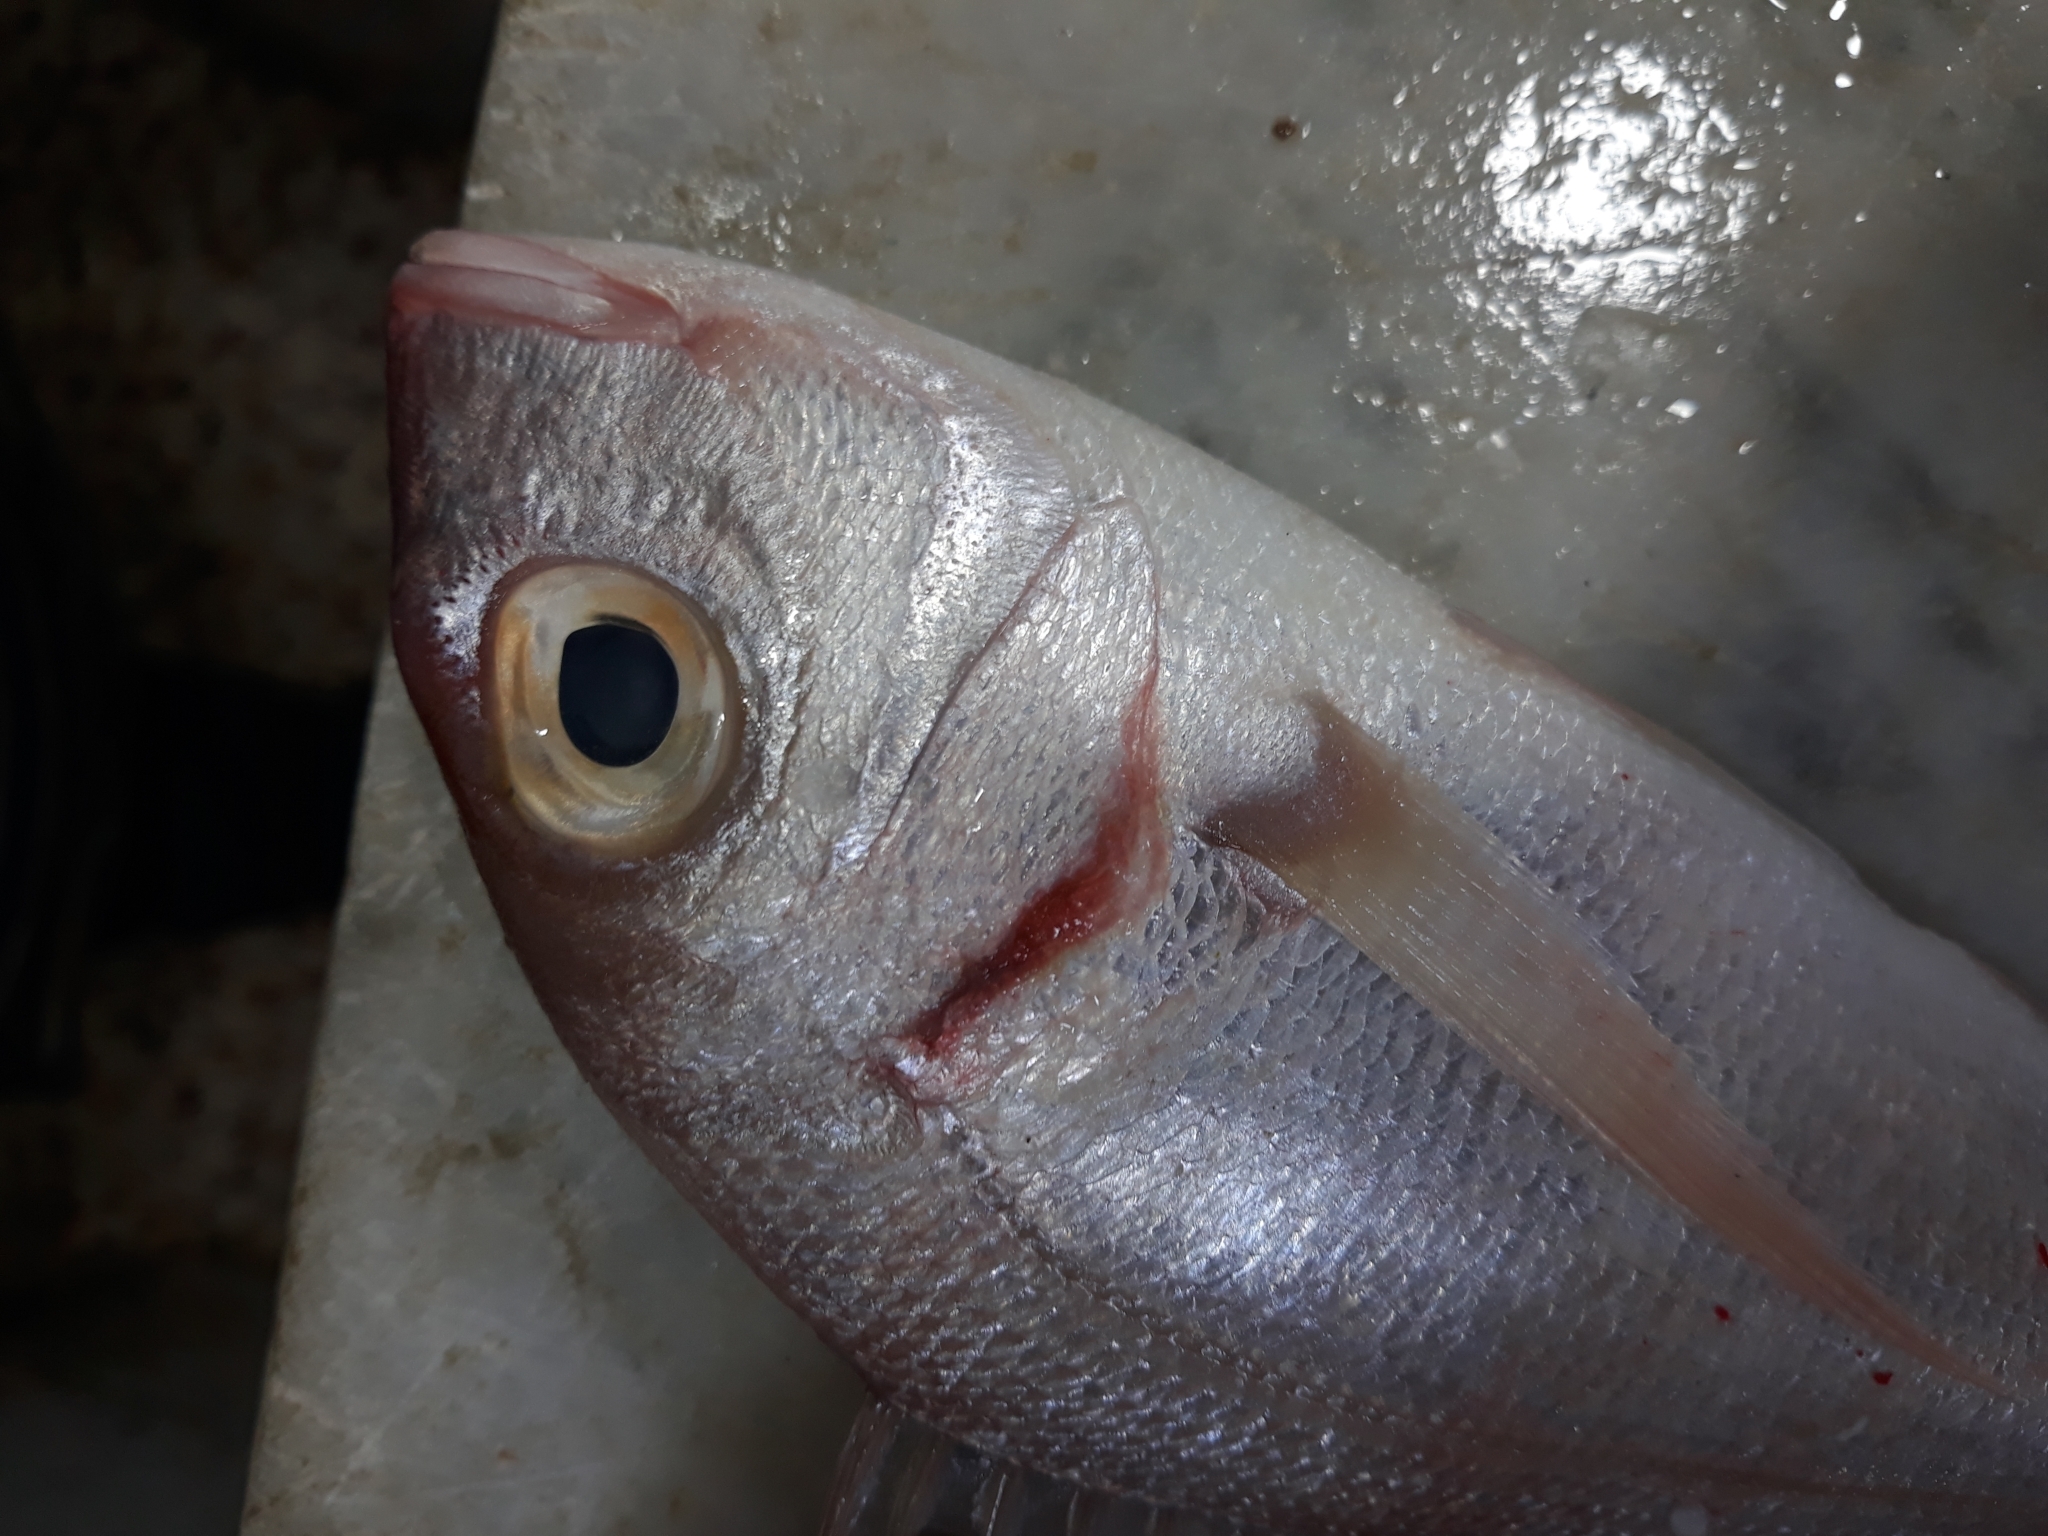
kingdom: Animalia
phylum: Chordata
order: Perciformes
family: Sparidae
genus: Pagellus
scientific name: Pagellus erythrinus
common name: Pandora
